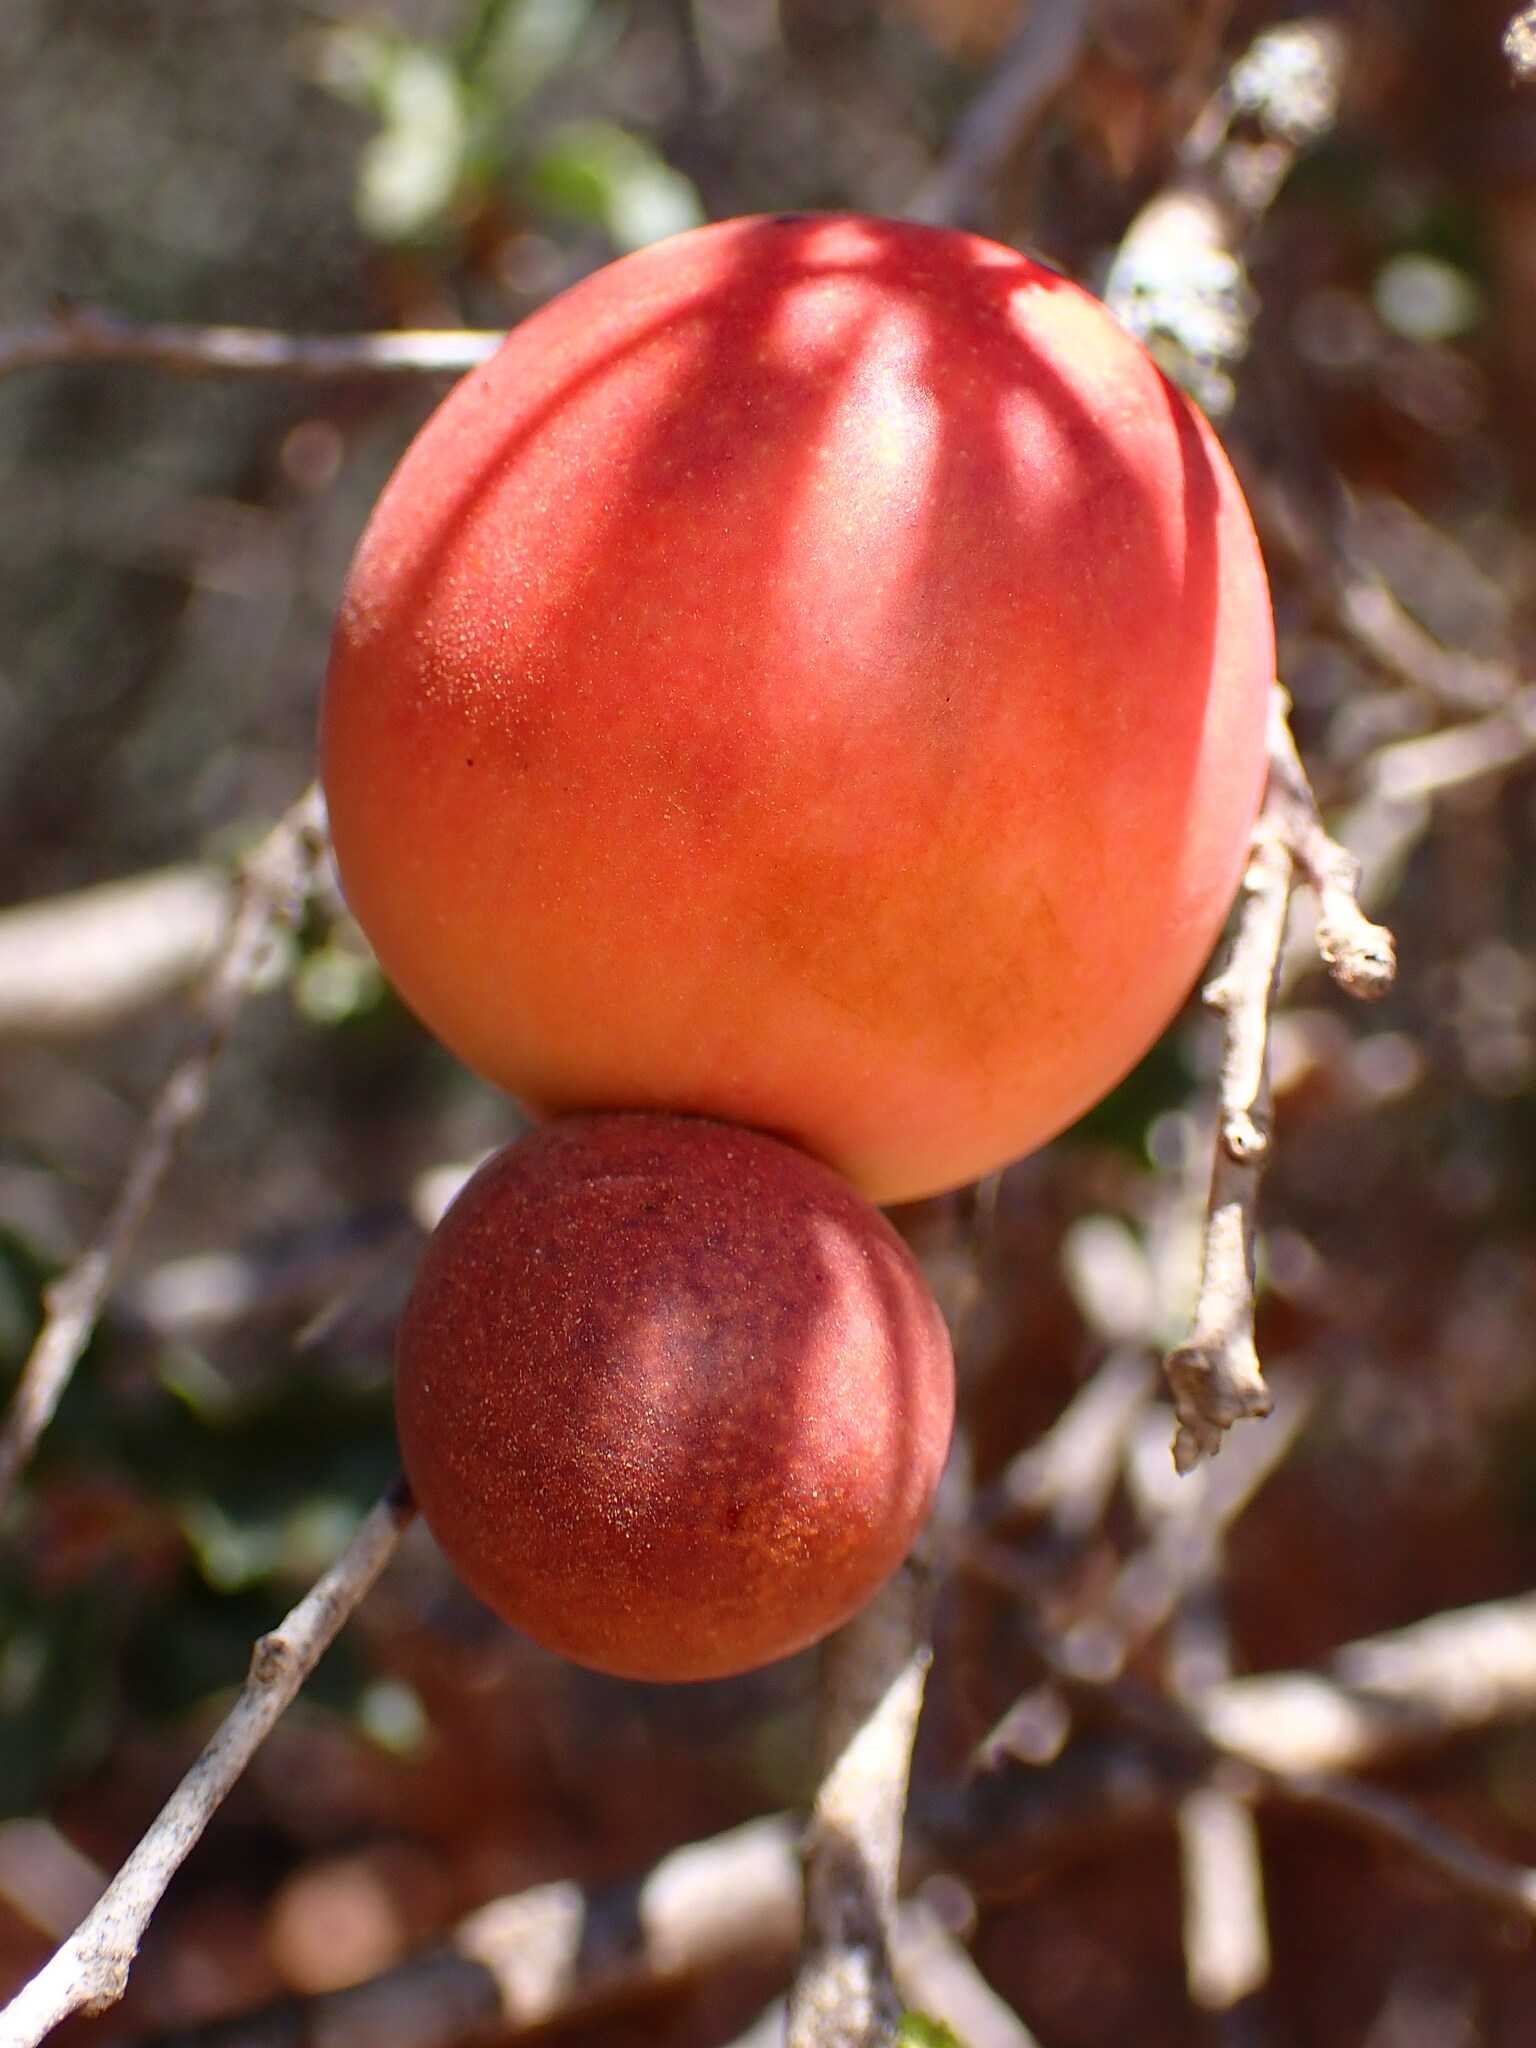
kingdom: Animalia
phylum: Arthropoda
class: Insecta
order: Hymenoptera
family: Cynipidae
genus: Andricus
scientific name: Andricus quercuscalifornicus
